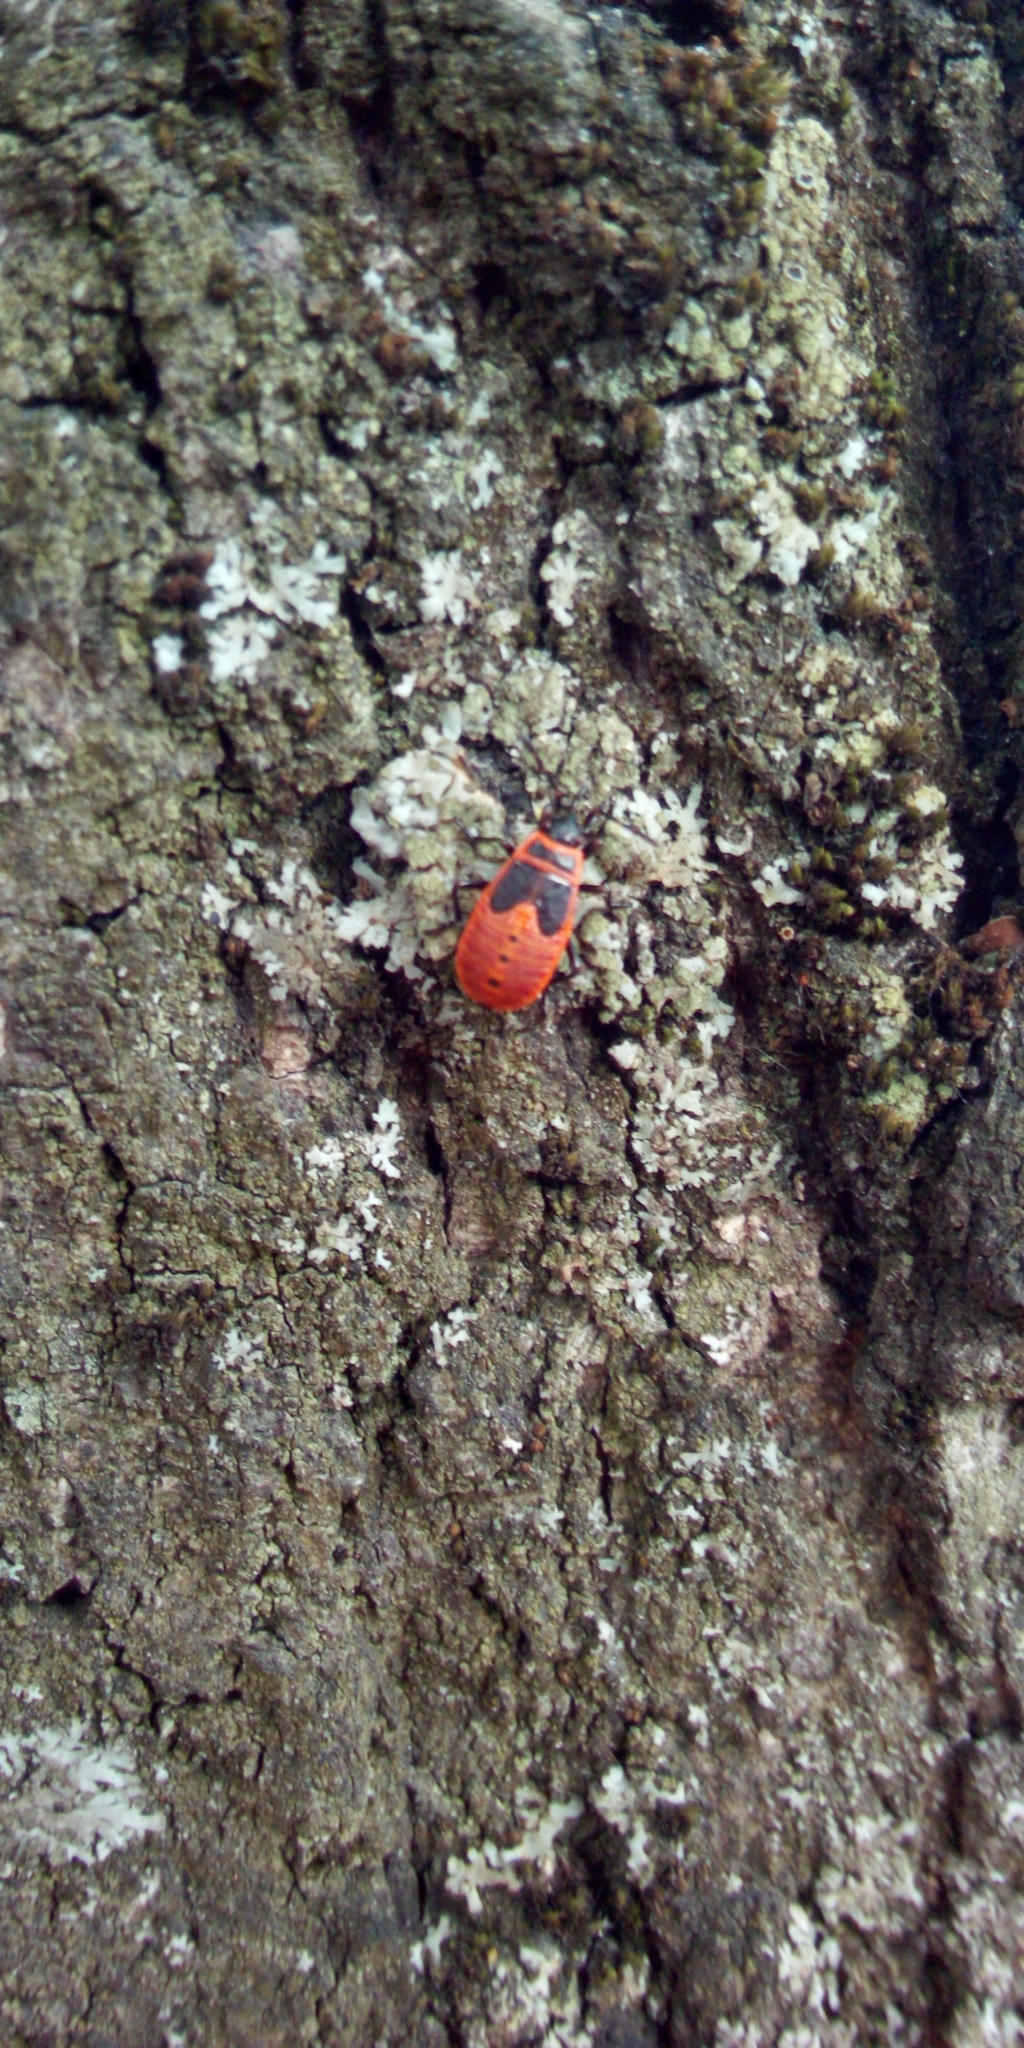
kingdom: Animalia
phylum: Arthropoda
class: Insecta
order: Hemiptera
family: Pyrrhocoridae
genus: Pyrrhocoris
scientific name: Pyrrhocoris apterus
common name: Firebug
